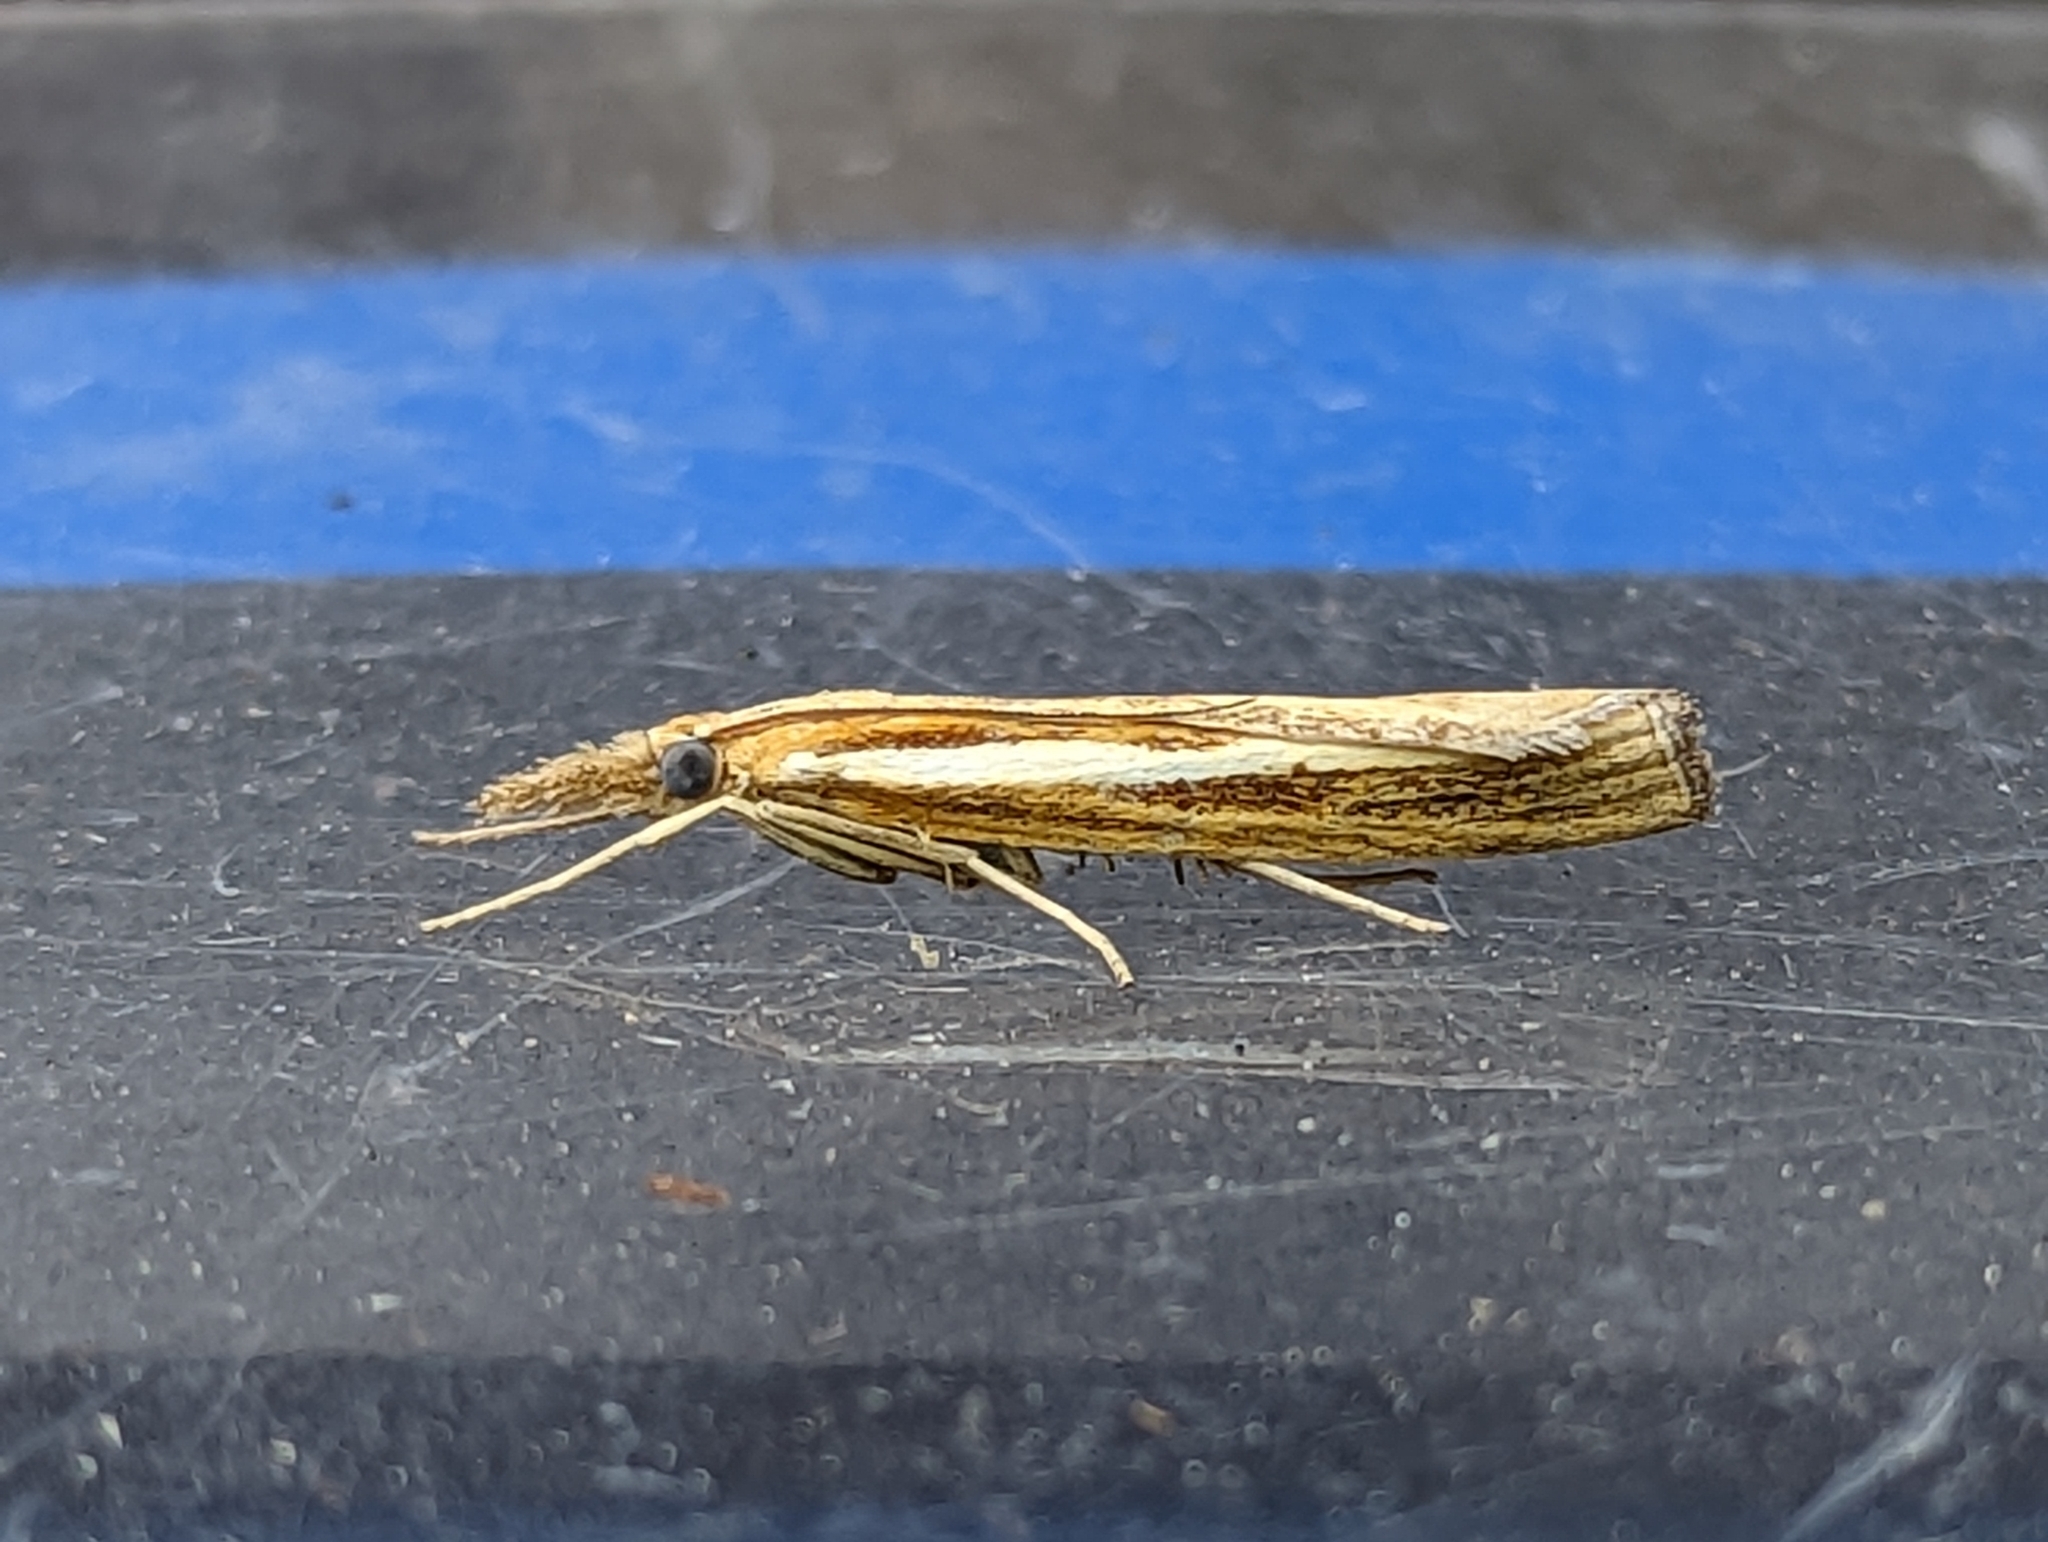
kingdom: Animalia
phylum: Arthropoda
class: Insecta
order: Lepidoptera
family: Crambidae
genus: Agriphila
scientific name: Agriphila tristellus
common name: Common grass-veneer
